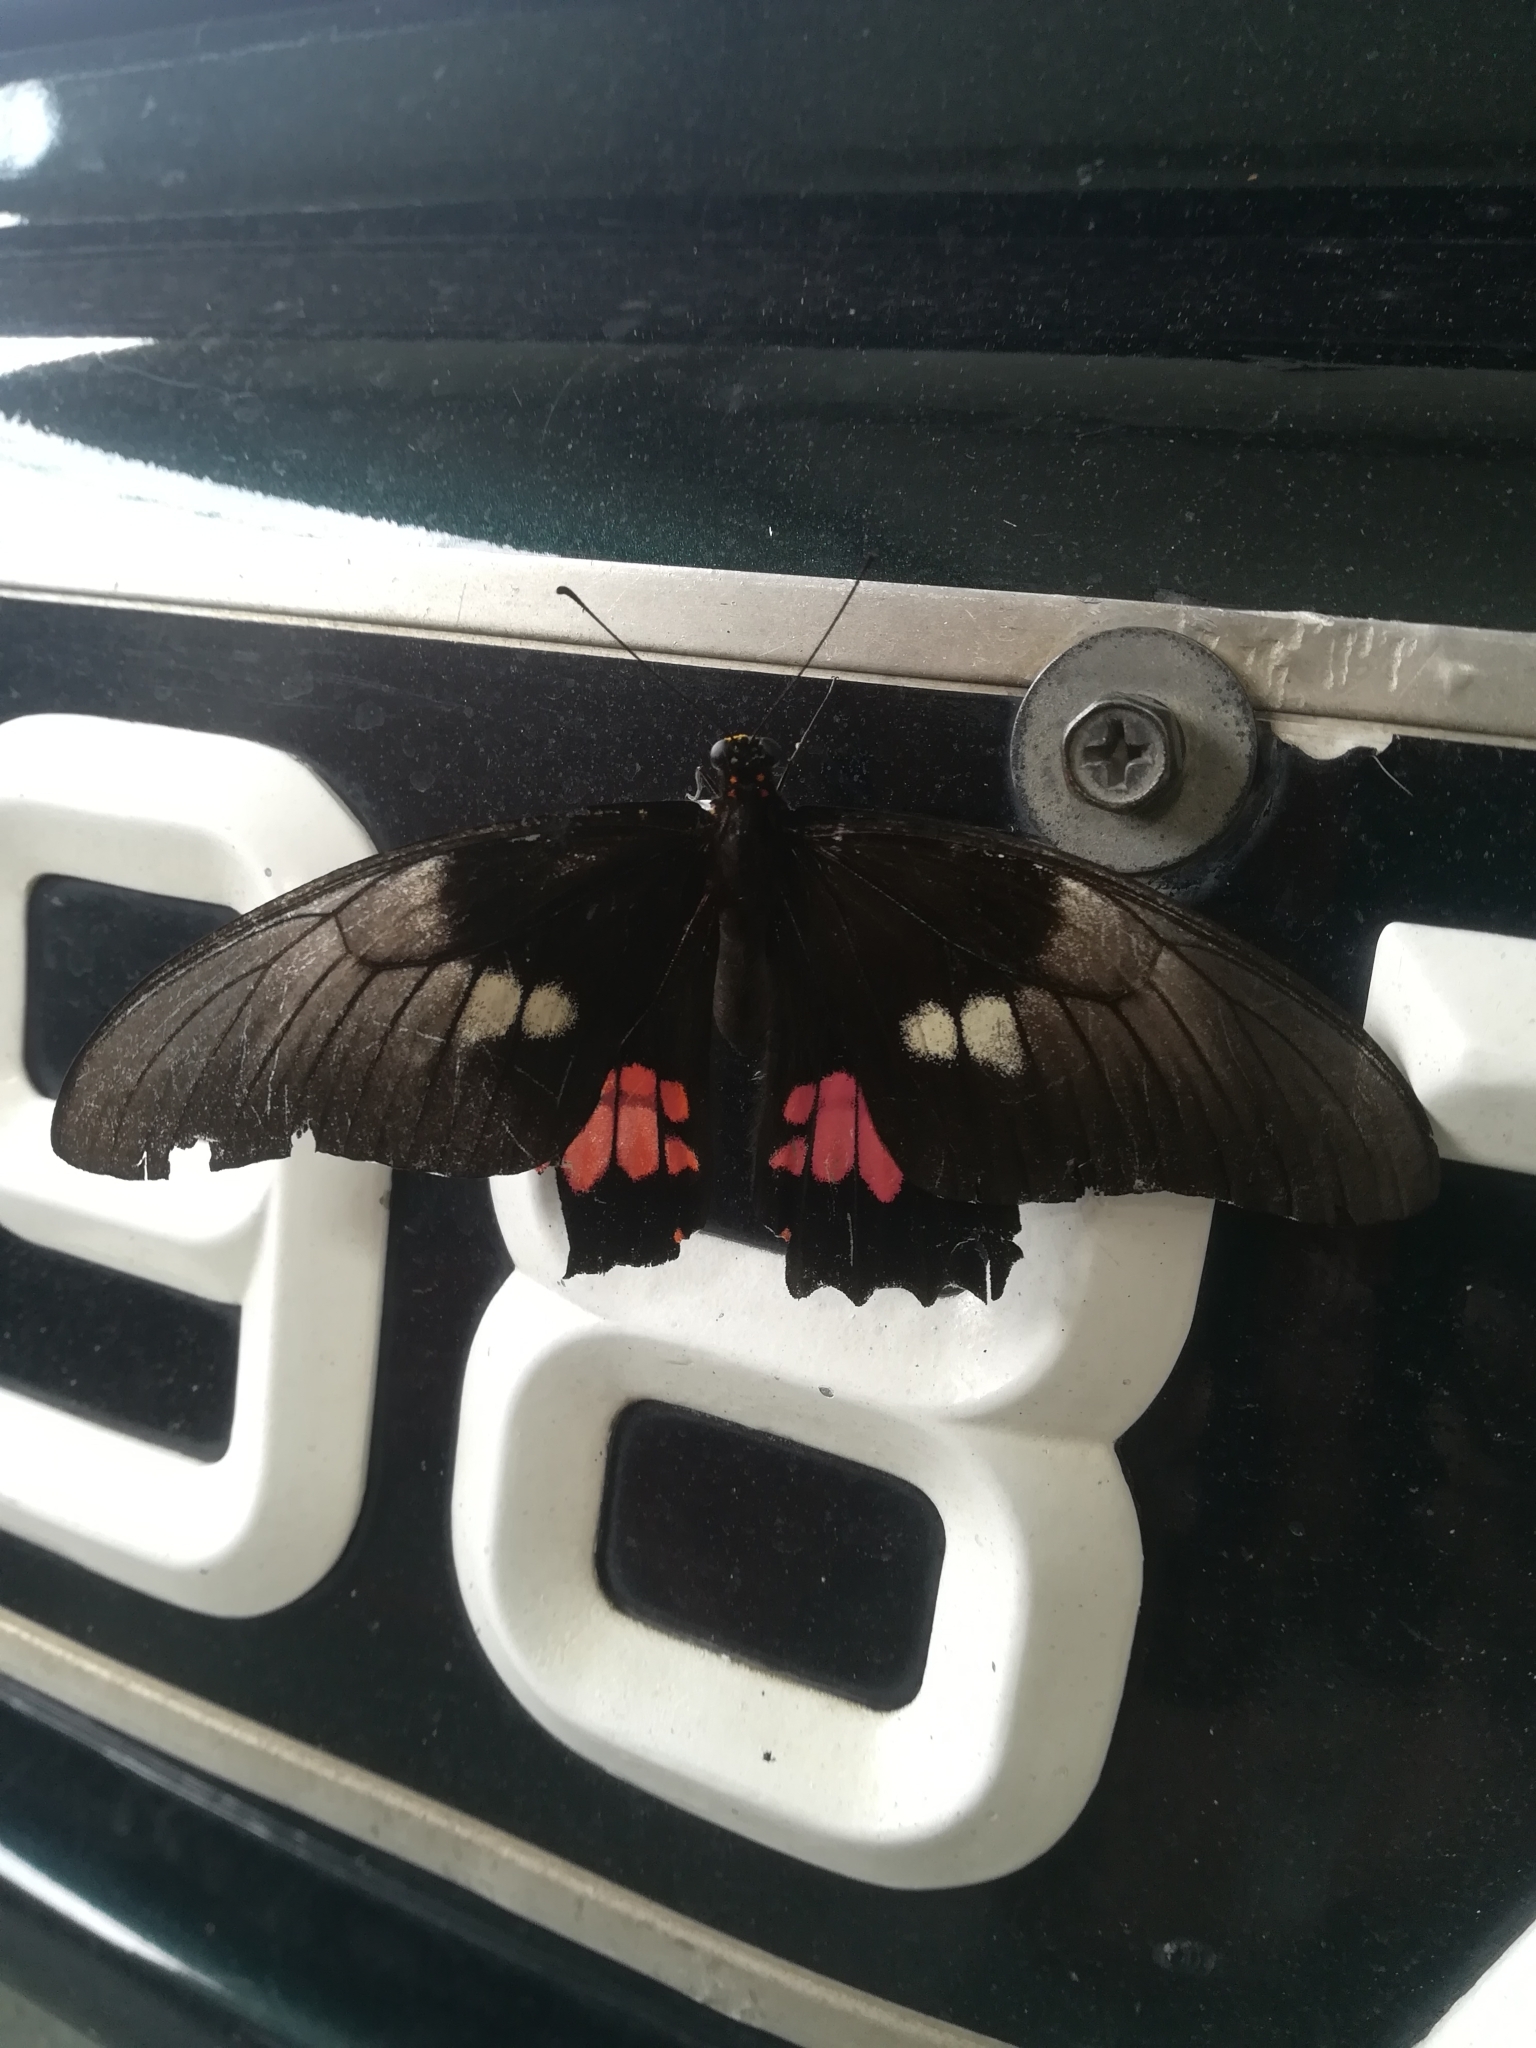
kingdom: Animalia
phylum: Arthropoda
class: Insecta
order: Lepidoptera
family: Papilionidae
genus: Papilio
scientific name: Papilio anchisiades
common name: Idaes swallowtail
